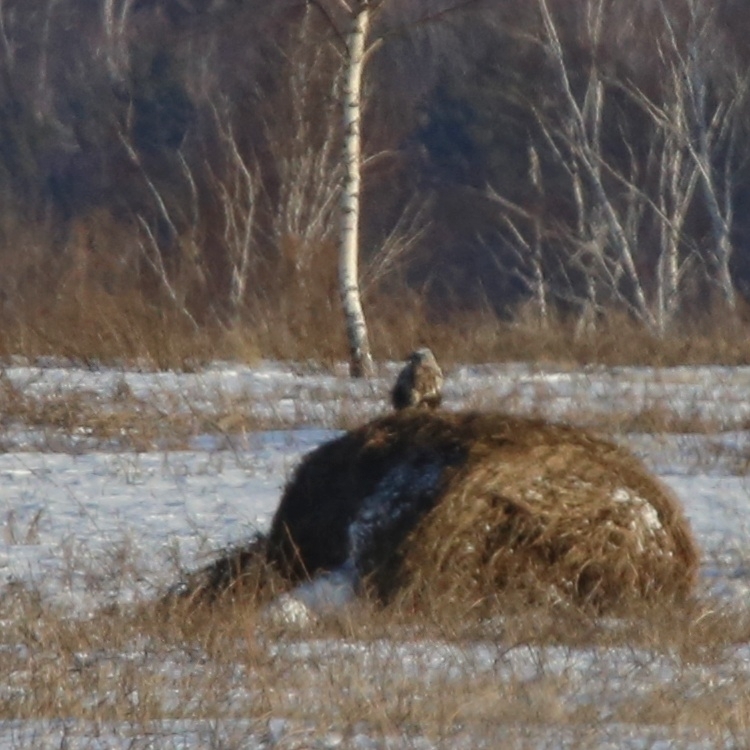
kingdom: Animalia
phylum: Chordata
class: Aves
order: Accipitriformes
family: Accipitridae
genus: Buteo
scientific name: Buteo lagopus
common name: Rough-legged buzzard
